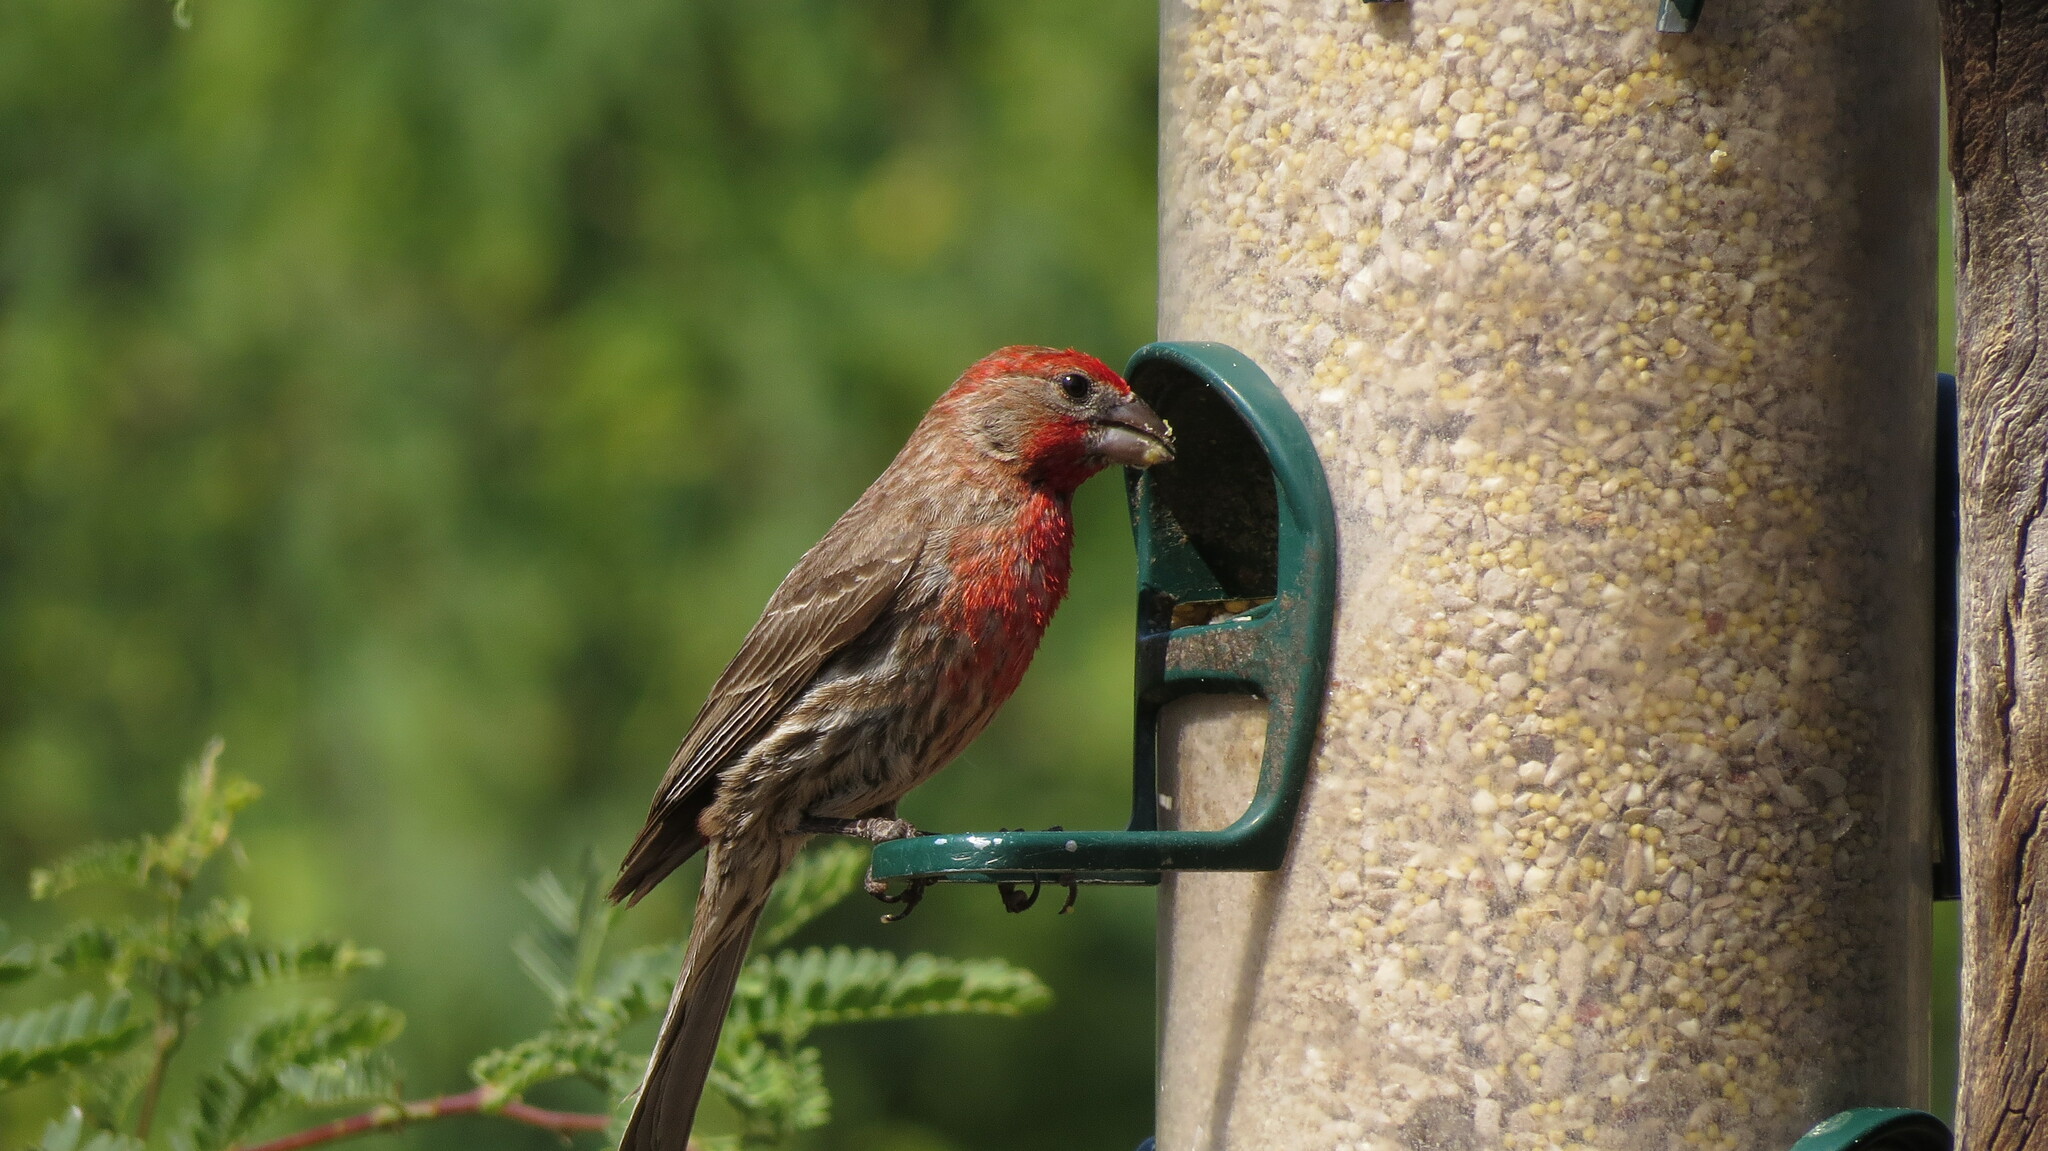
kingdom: Animalia
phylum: Chordata
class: Aves
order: Passeriformes
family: Fringillidae
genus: Haemorhous
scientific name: Haemorhous mexicanus
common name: House finch
